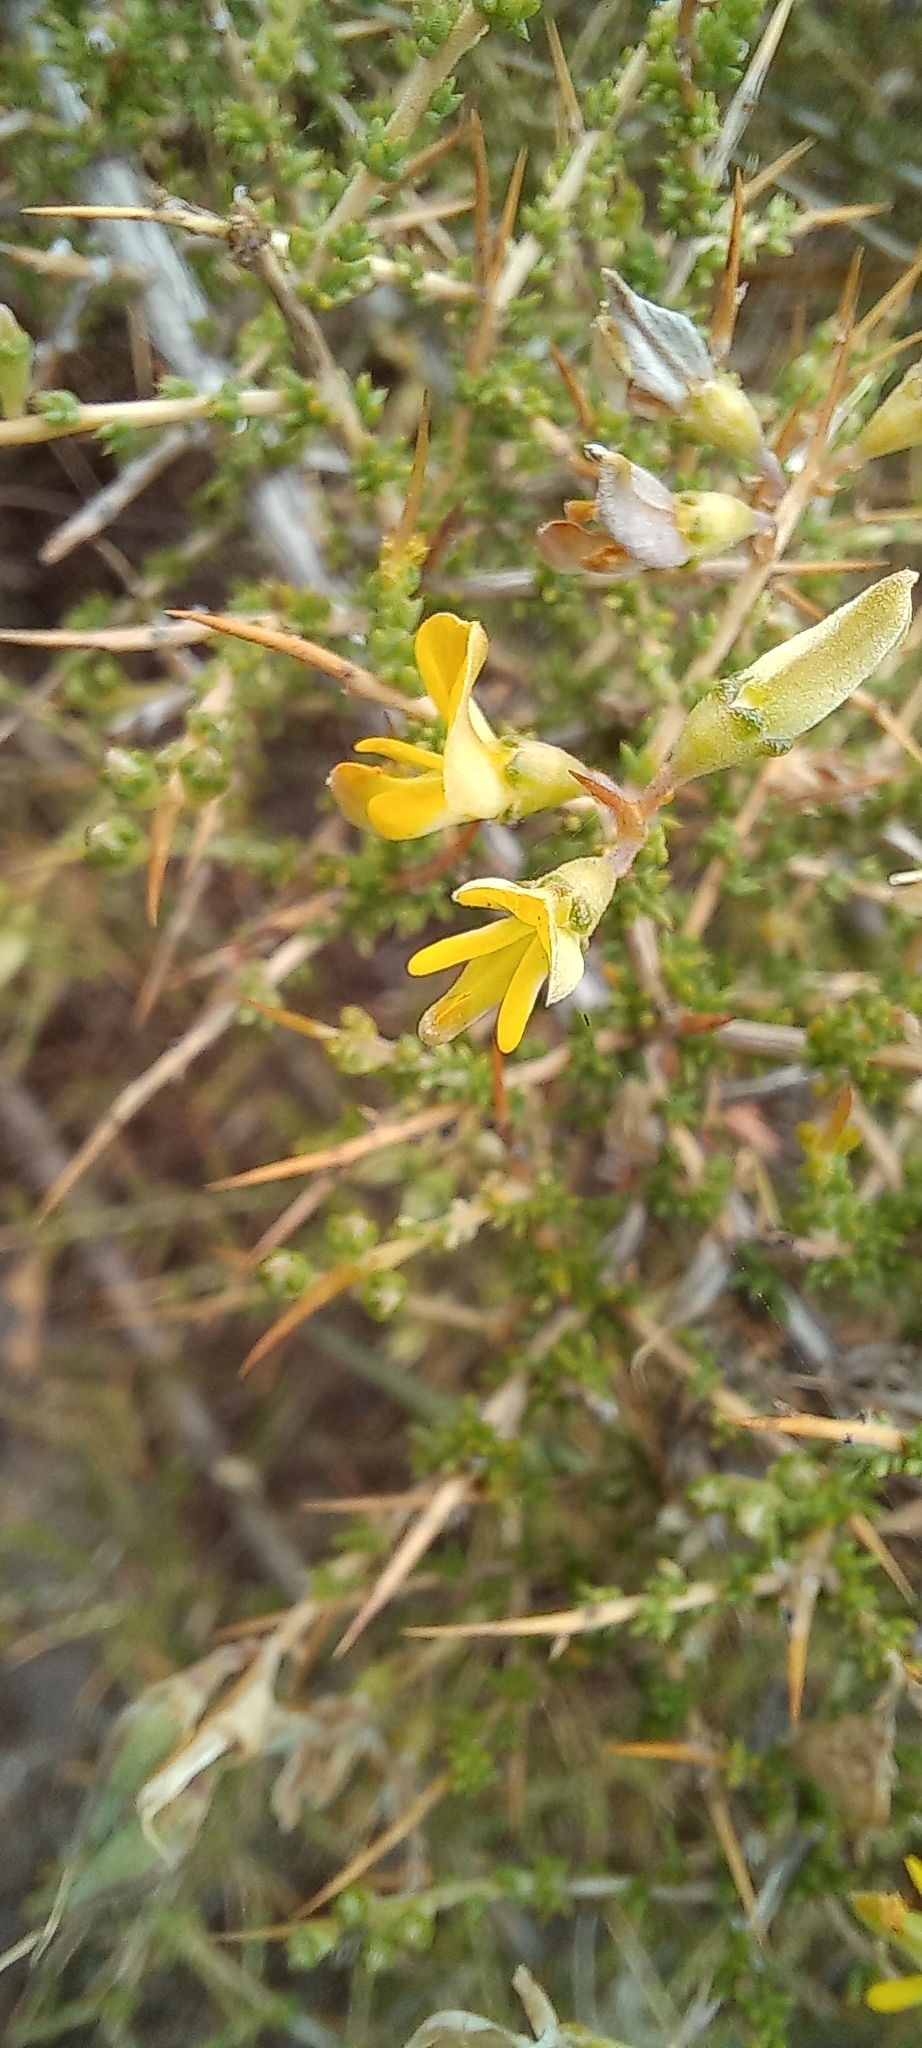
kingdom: Plantae
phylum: Tracheophyta
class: Magnoliopsida
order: Fabales
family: Fabaceae
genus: Aspalathus
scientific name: Aspalathus acuminata
